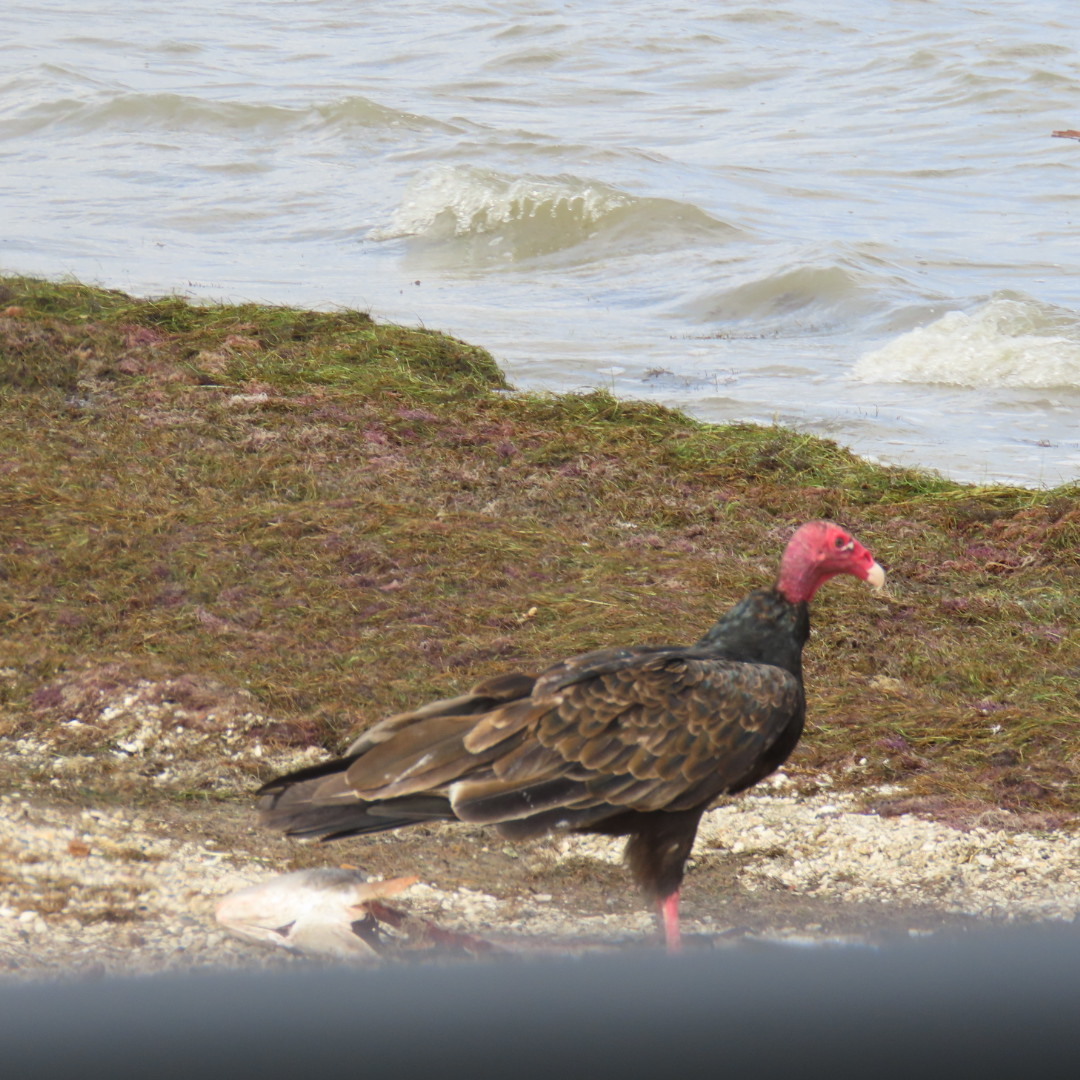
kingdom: Animalia
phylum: Chordata
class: Aves
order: Accipitriformes
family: Cathartidae
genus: Cathartes
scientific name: Cathartes aura
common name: Turkey vulture
